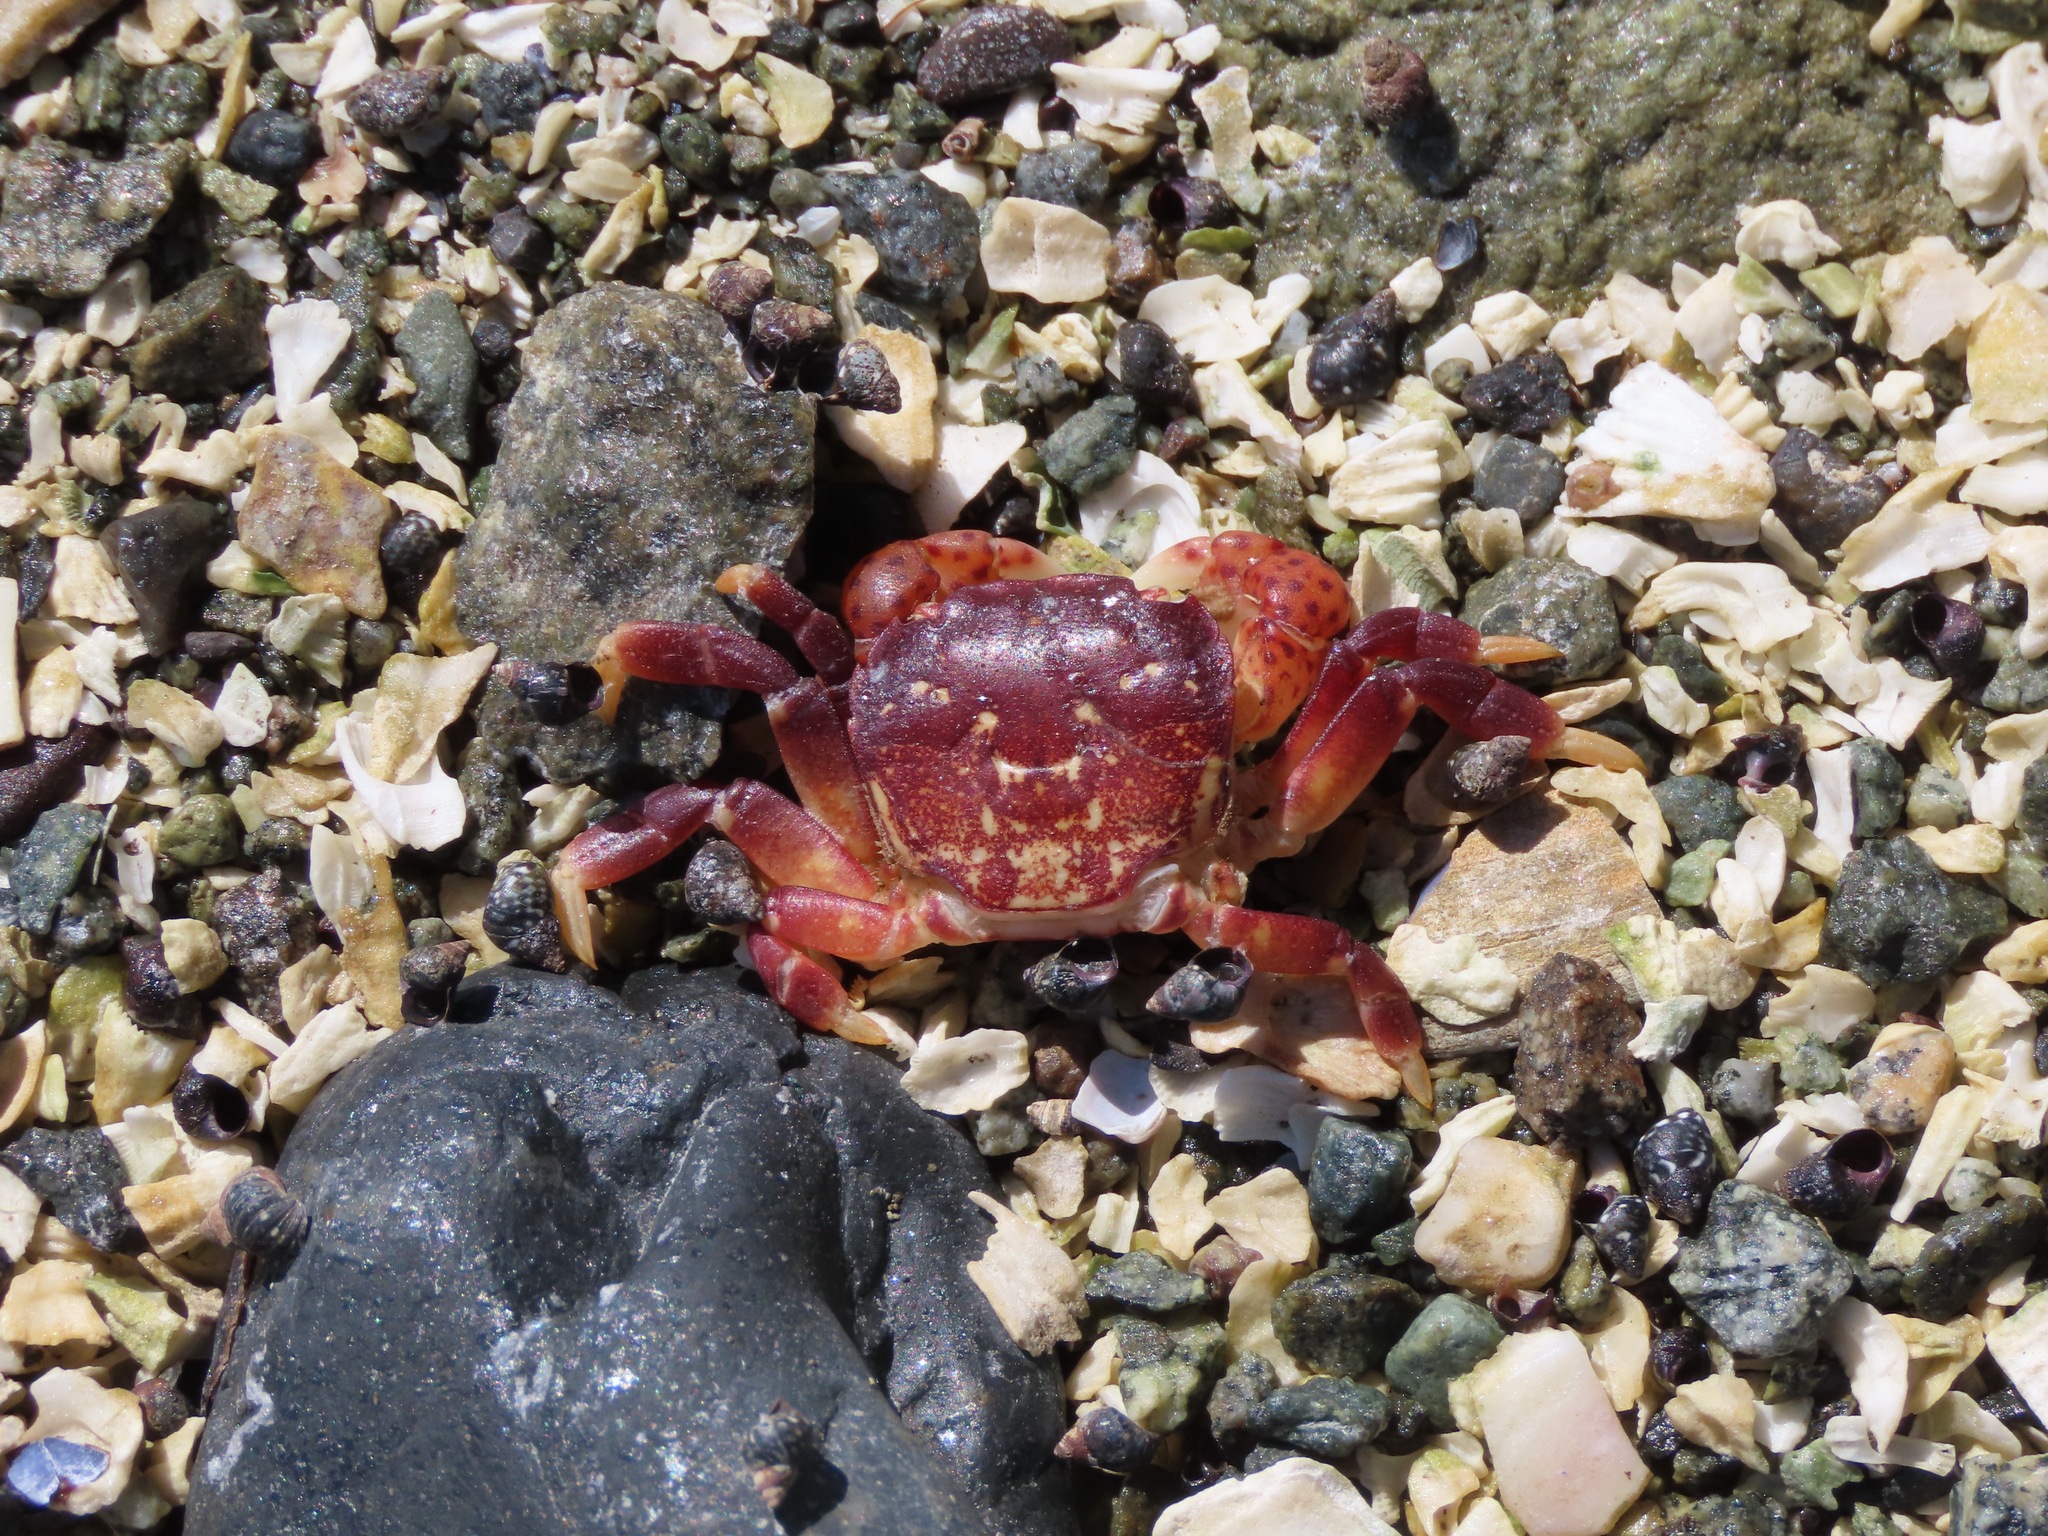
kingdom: Animalia
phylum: Arthropoda
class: Malacostraca
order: Decapoda
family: Varunidae
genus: Hemigrapsus
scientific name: Hemigrapsus nudus
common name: Purple shore crab
